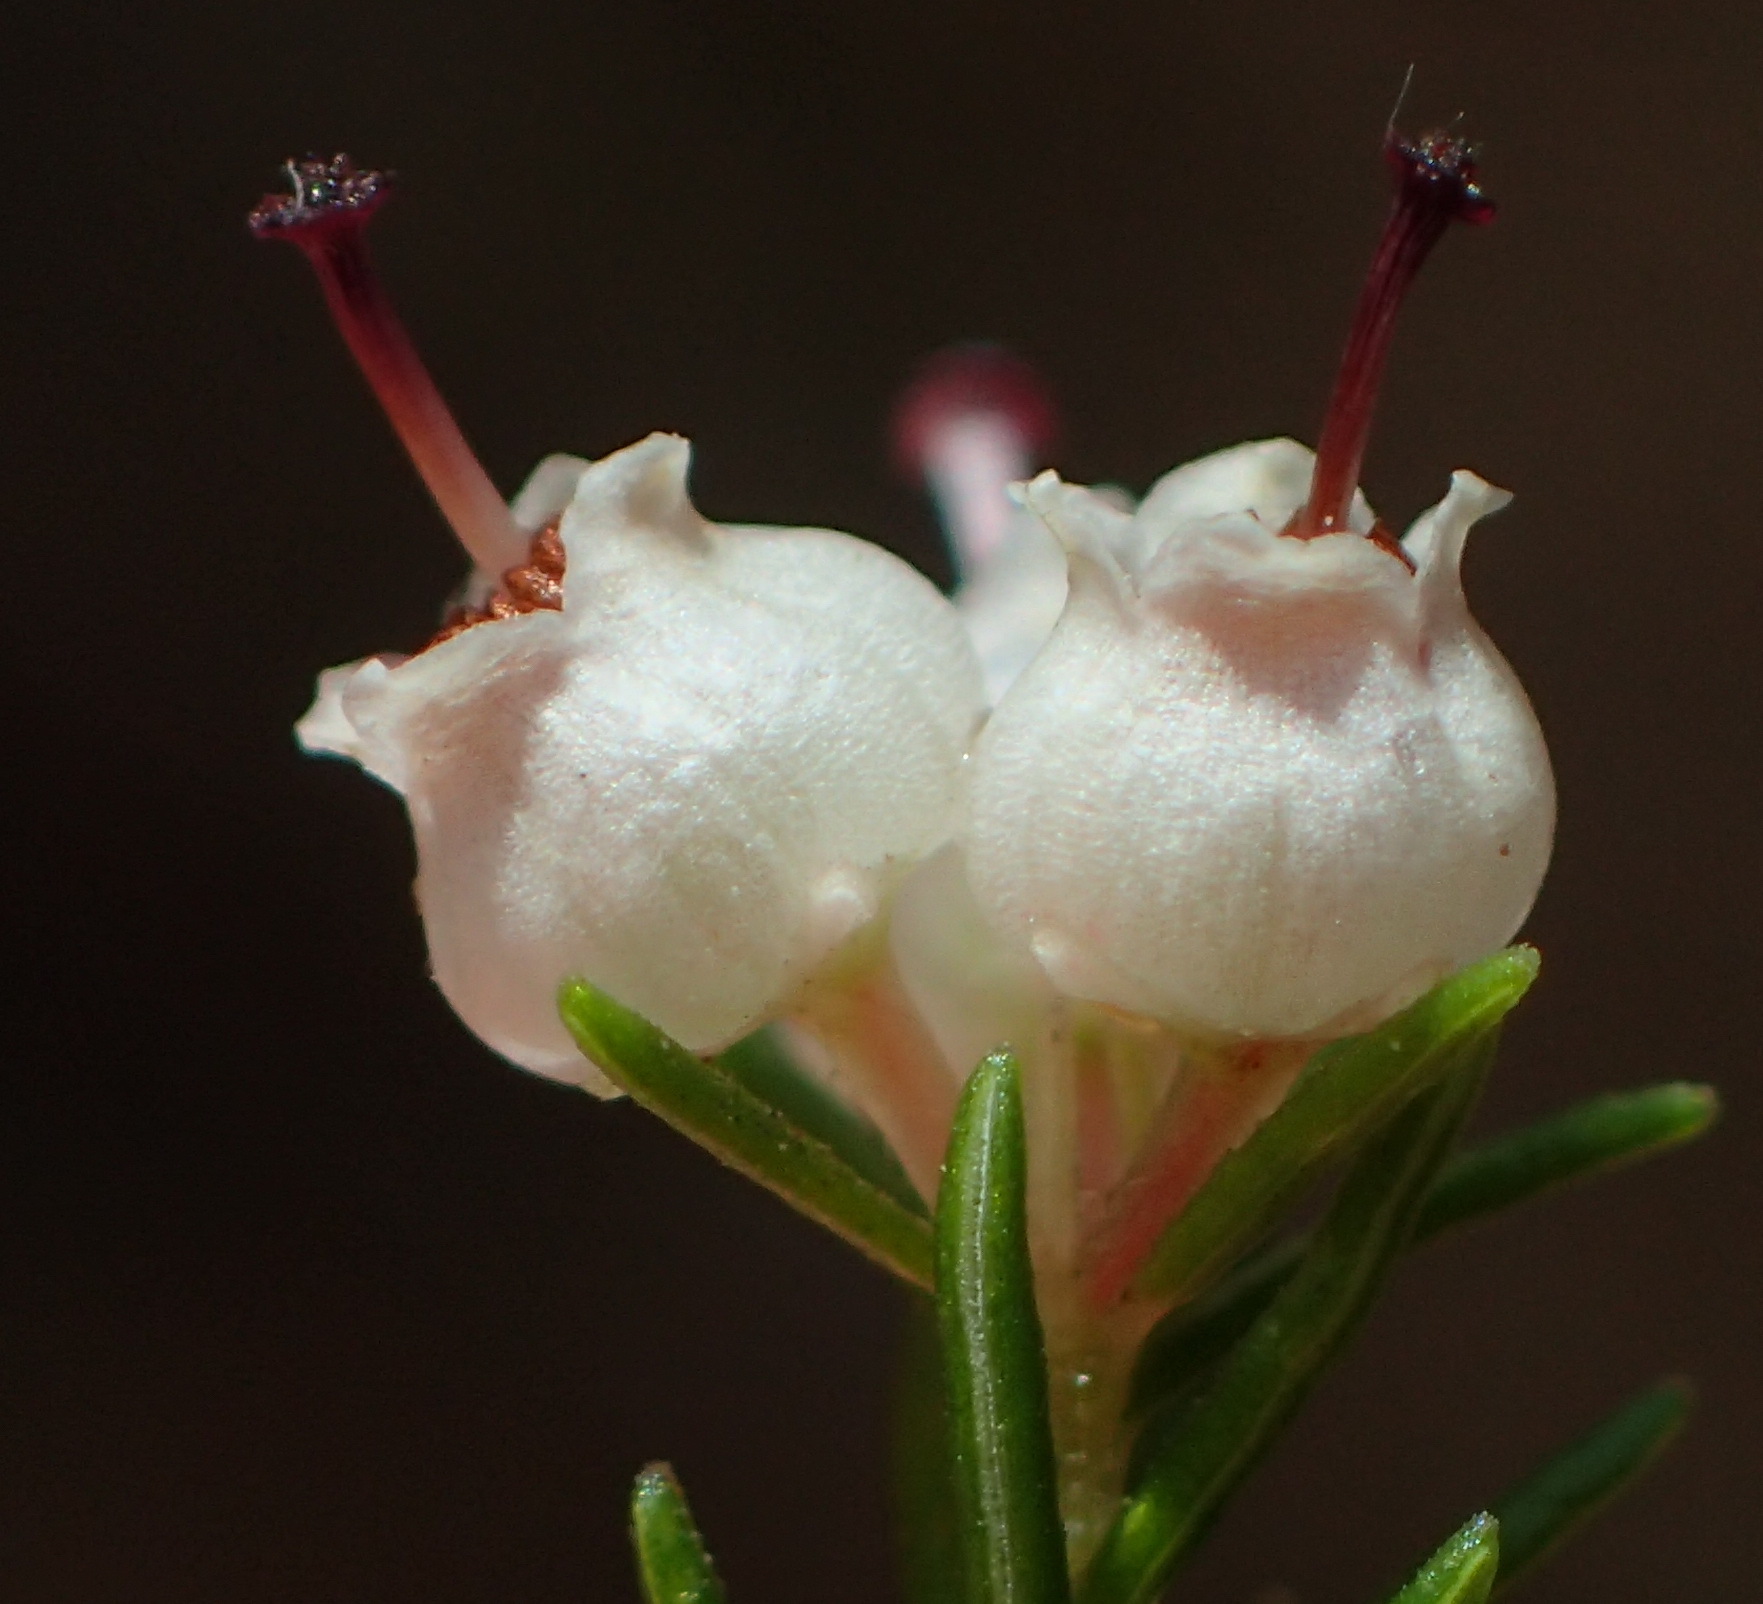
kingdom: Plantae
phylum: Tracheophyta
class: Magnoliopsida
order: Ericales
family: Ericaceae
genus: Erica
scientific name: Erica inconstans
